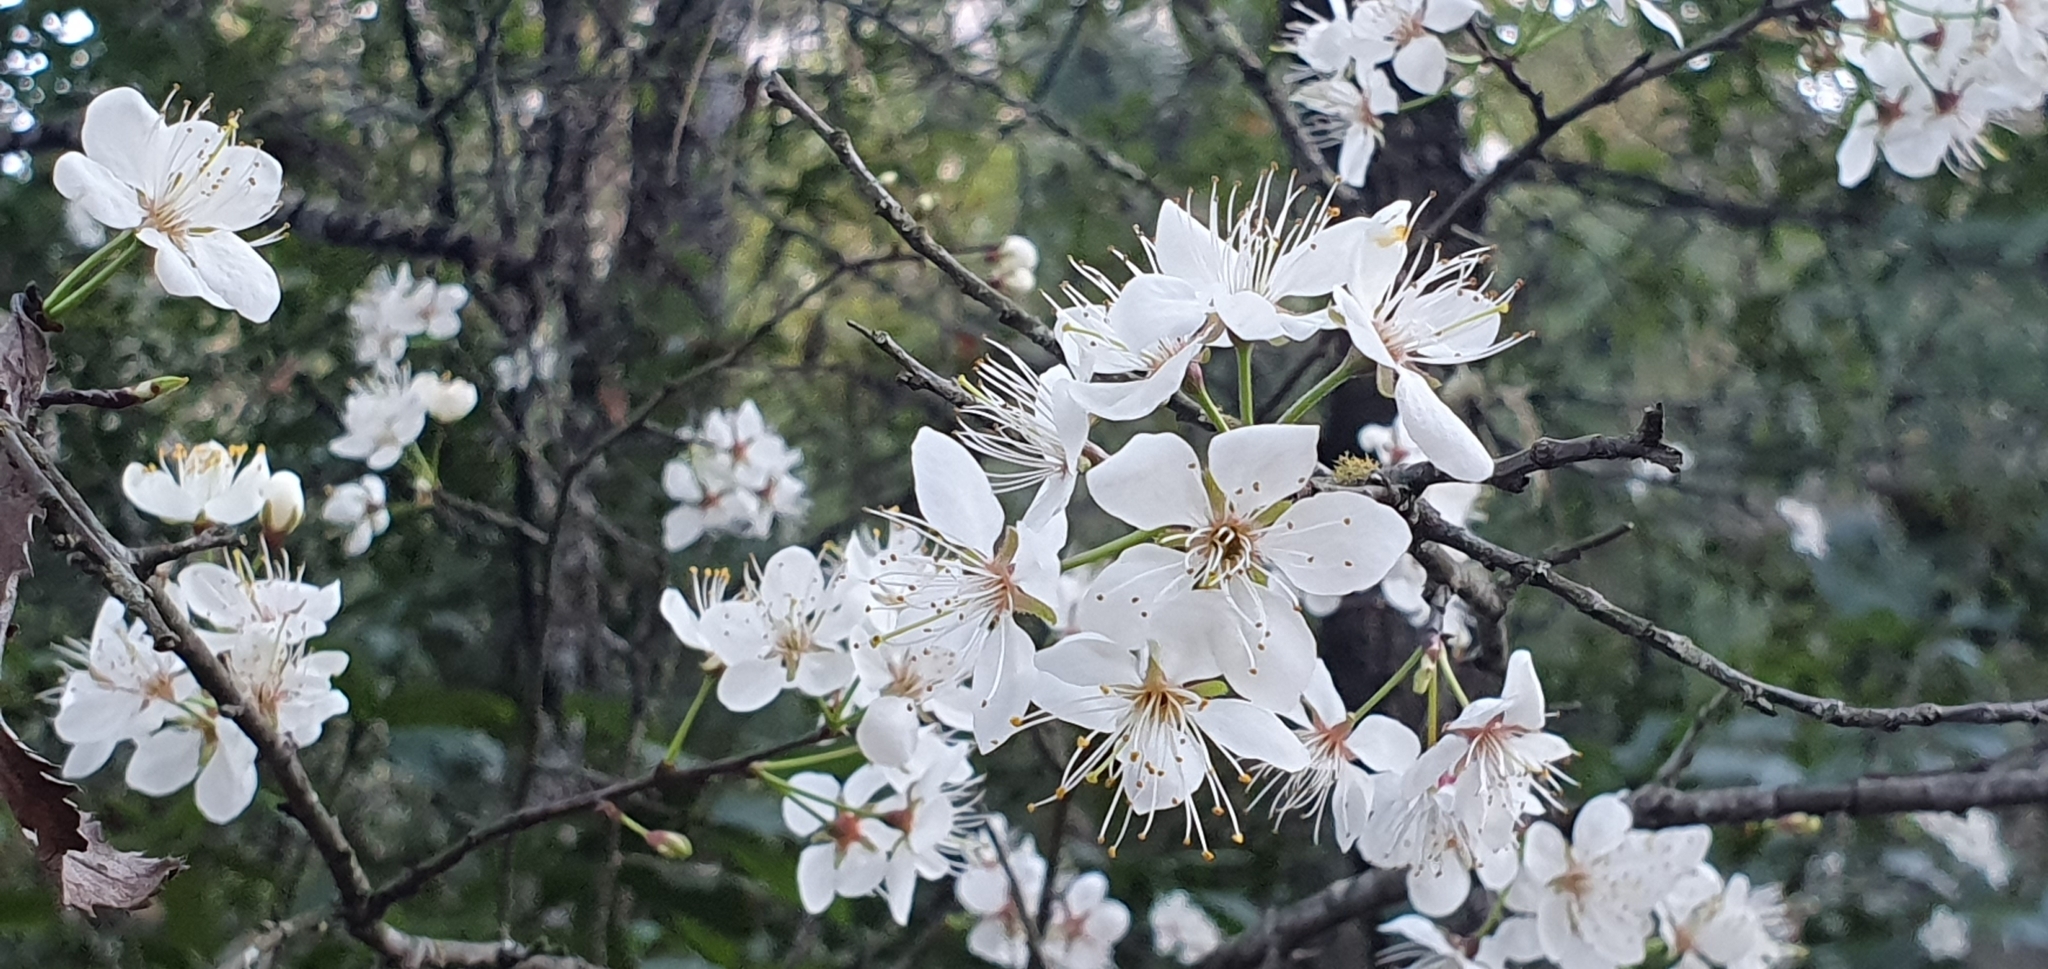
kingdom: Plantae
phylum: Tracheophyta
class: Magnoliopsida
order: Rosales
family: Rosaceae
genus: Prunus
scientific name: Prunus mexicana
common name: Mexican plum
